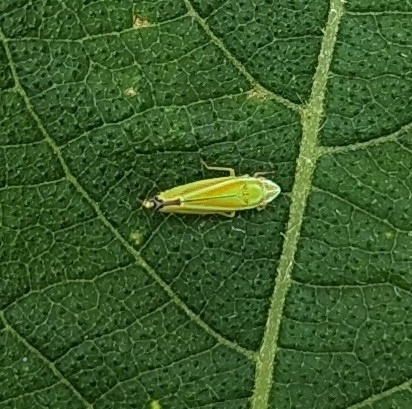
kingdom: Animalia
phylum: Arthropoda
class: Insecta
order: Hemiptera
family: Cicadellidae
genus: Graphocephala
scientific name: Graphocephala versuta
